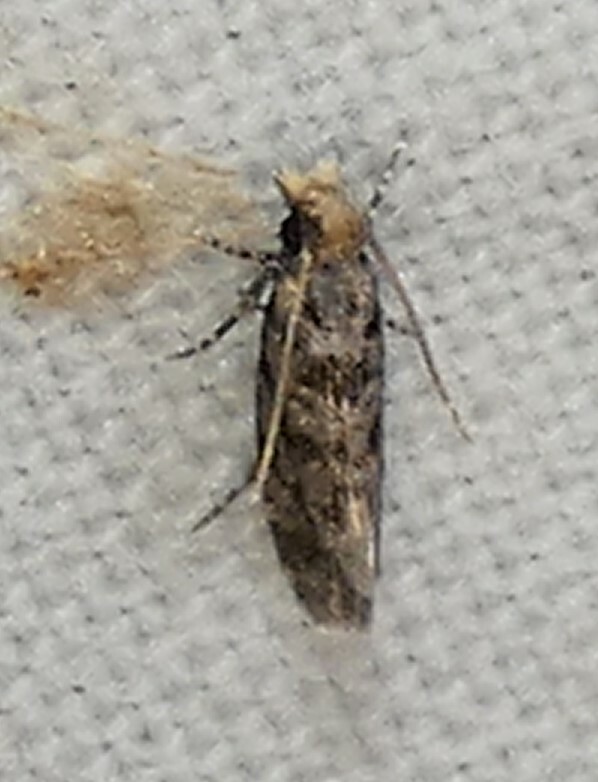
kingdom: Animalia
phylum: Arthropoda
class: Insecta
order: Lepidoptera
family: Tineidae
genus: Amydria
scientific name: Amydria
